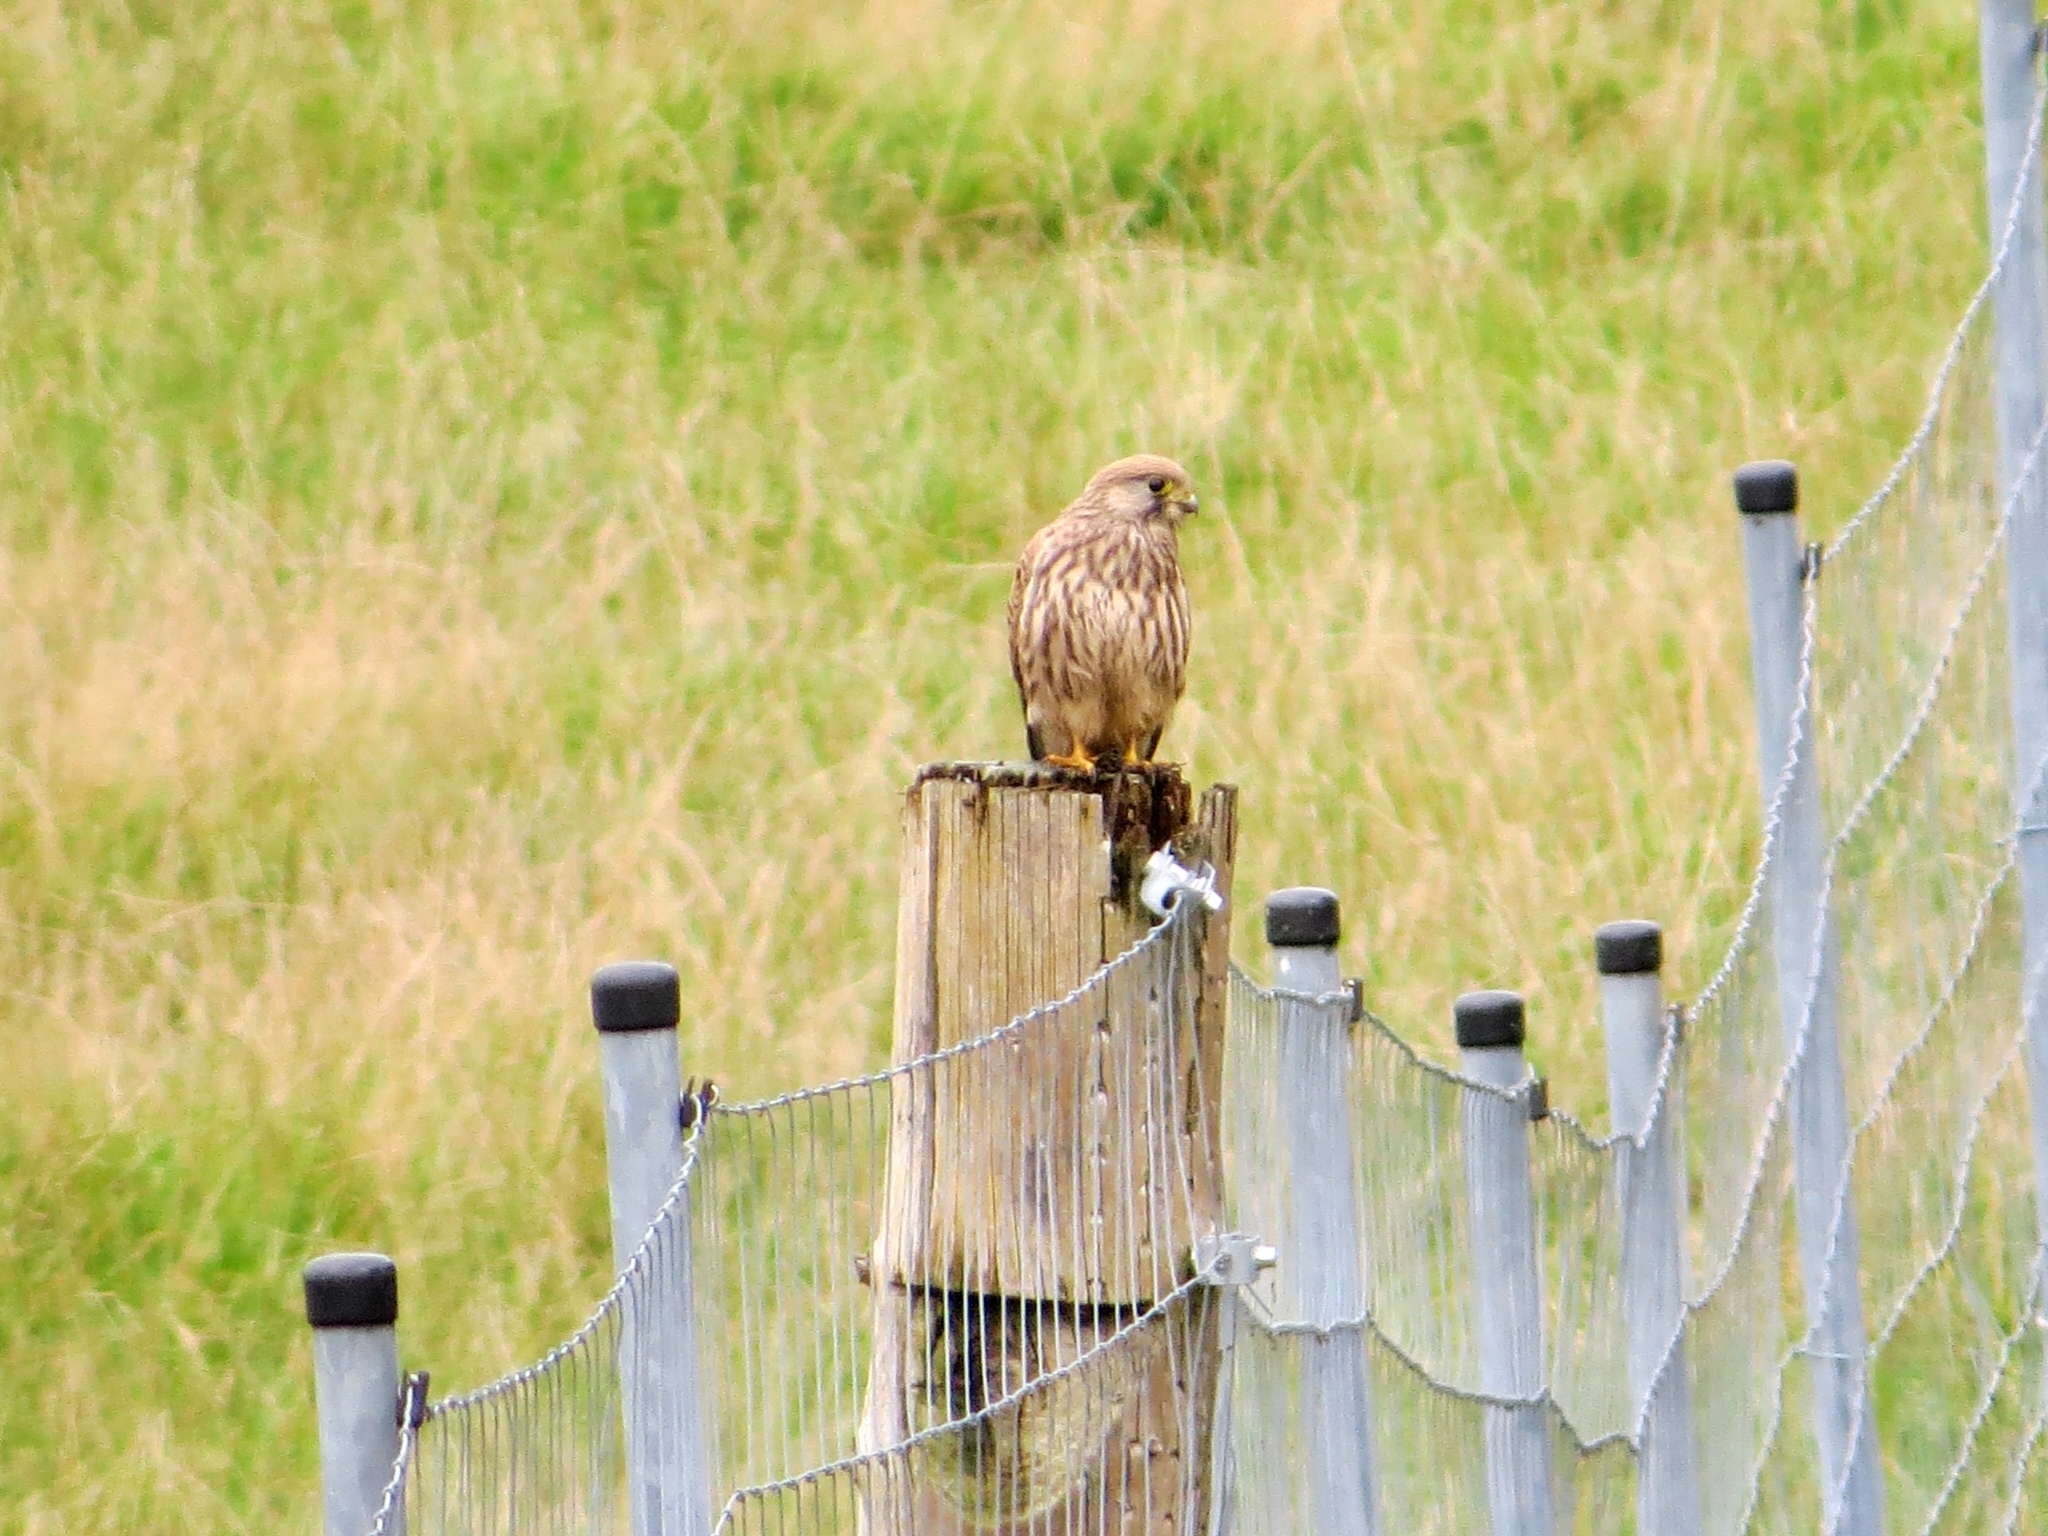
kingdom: Animalia
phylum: Chordata
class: Aves
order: Falconiformes
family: Falconidae
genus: Falco
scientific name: Falco tinnunculus
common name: Common kestrel
